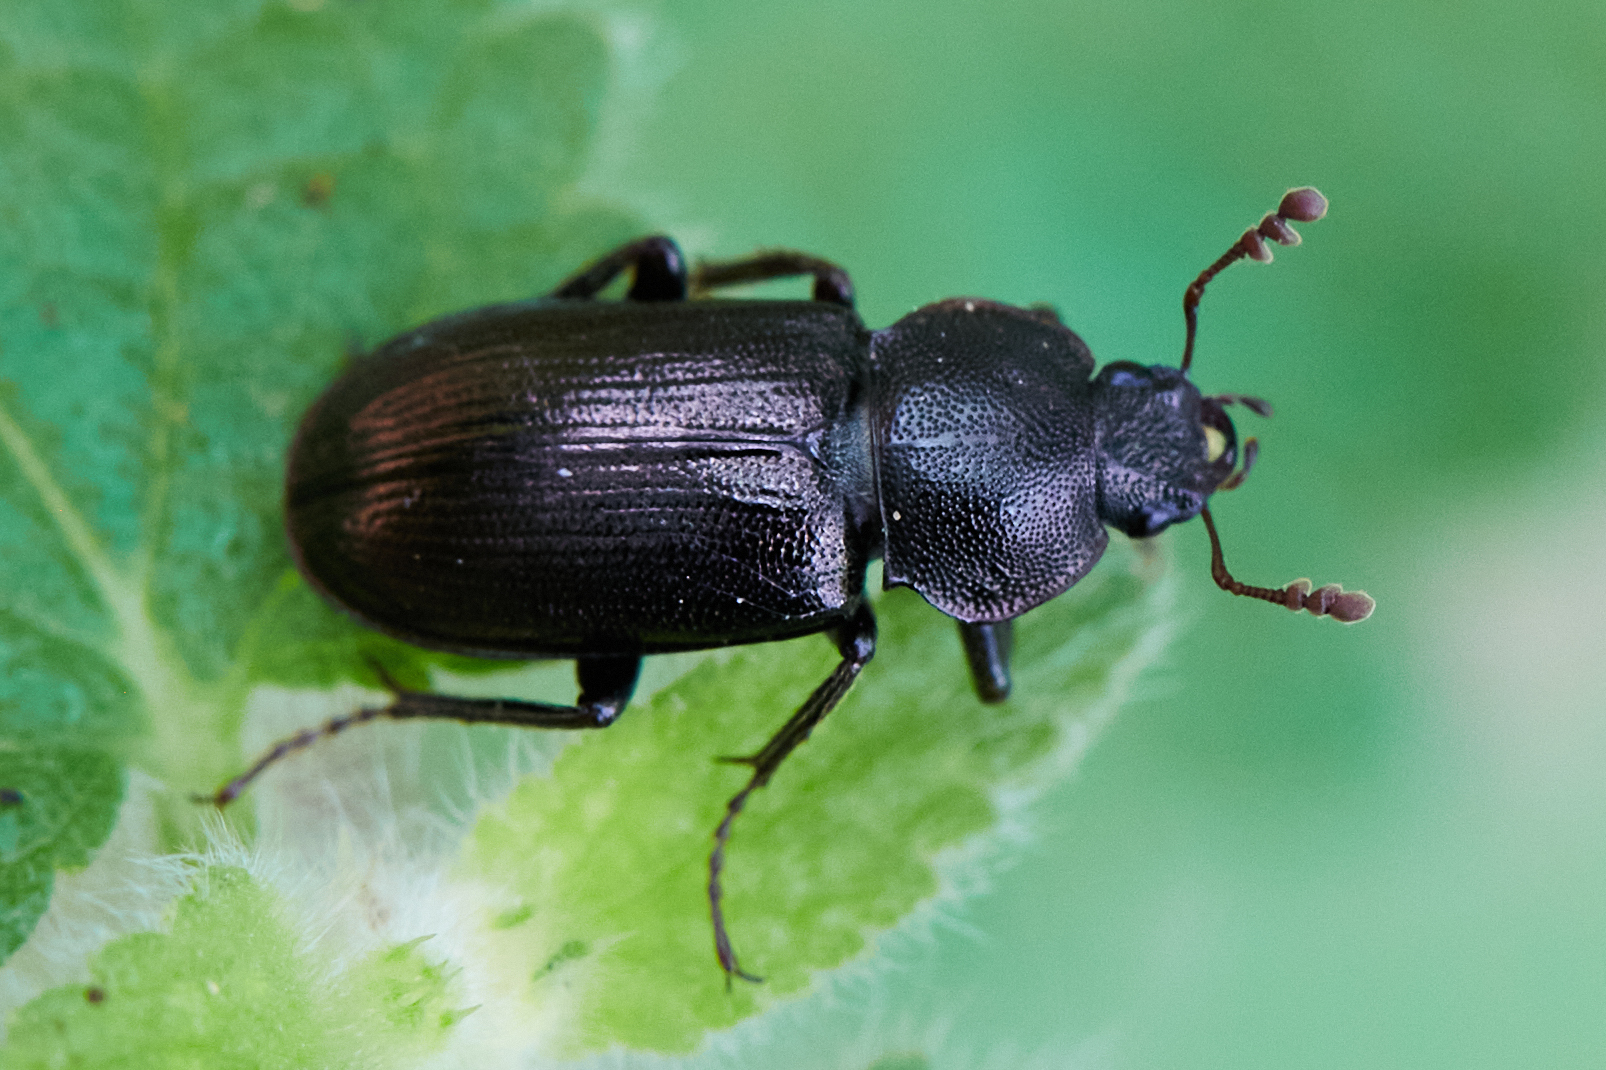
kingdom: Animalia
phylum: Arthropoda
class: Insecta
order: Coleoptera
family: Lucanidae
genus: Platyceroides
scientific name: Platyceroides thoracica
